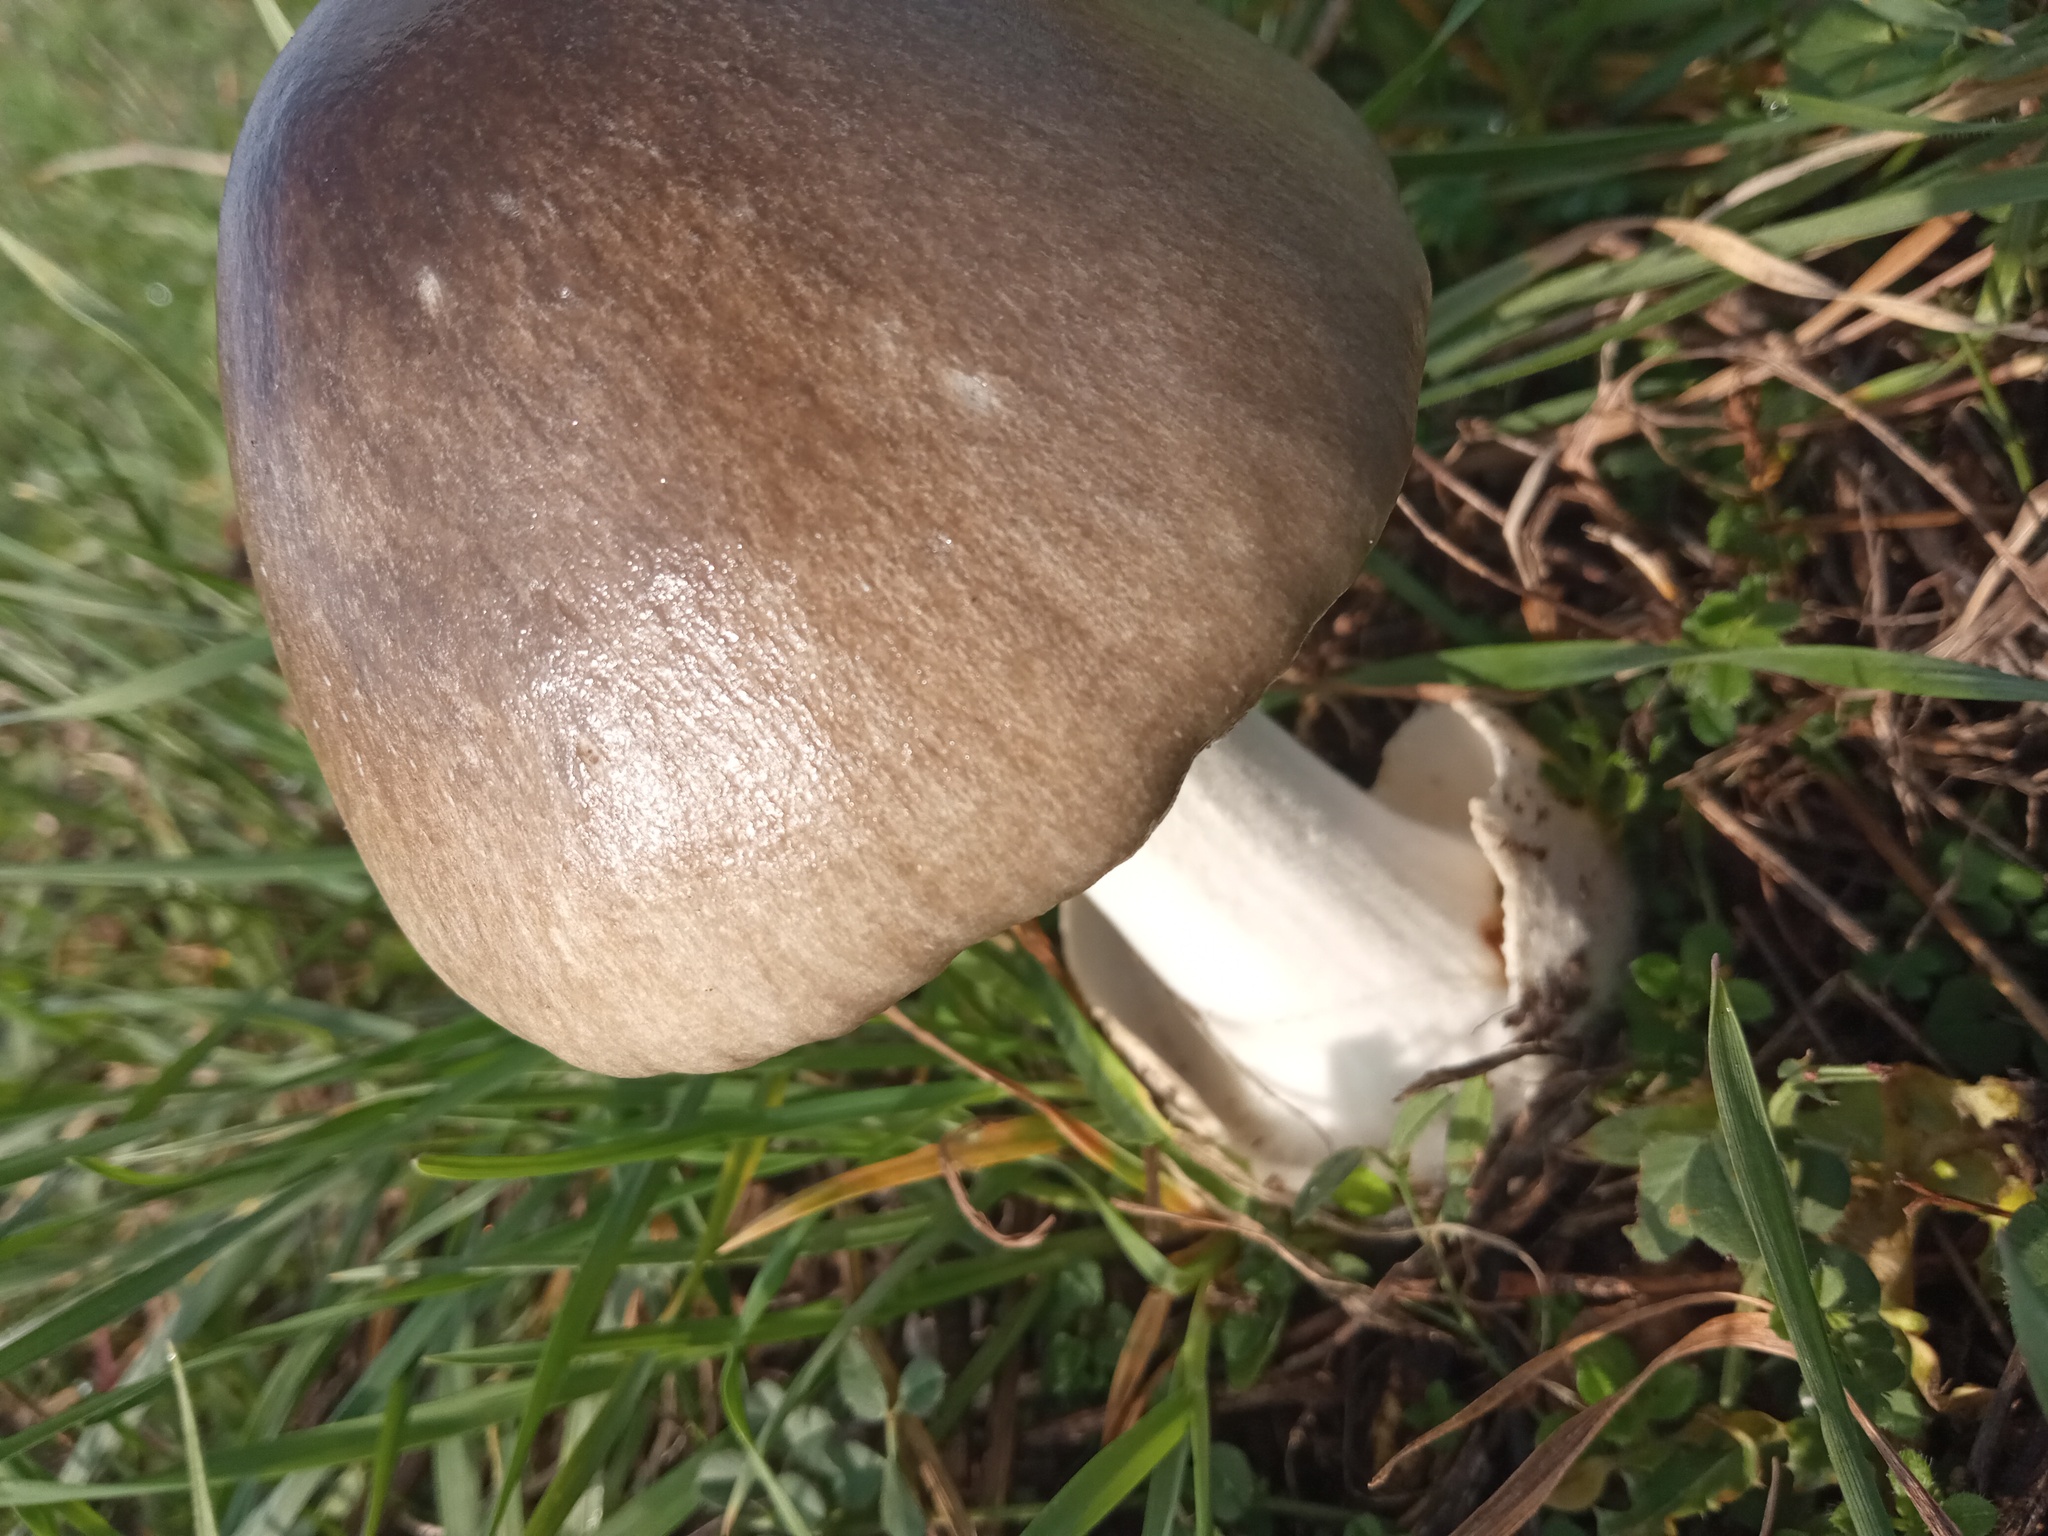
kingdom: Fungi
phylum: Basidiomycota
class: Agaricomycetes
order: Agaricales
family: Pluteaceae
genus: Volvopluteus
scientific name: Volvopluteus gloiocephalus
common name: Stubble rosegill
